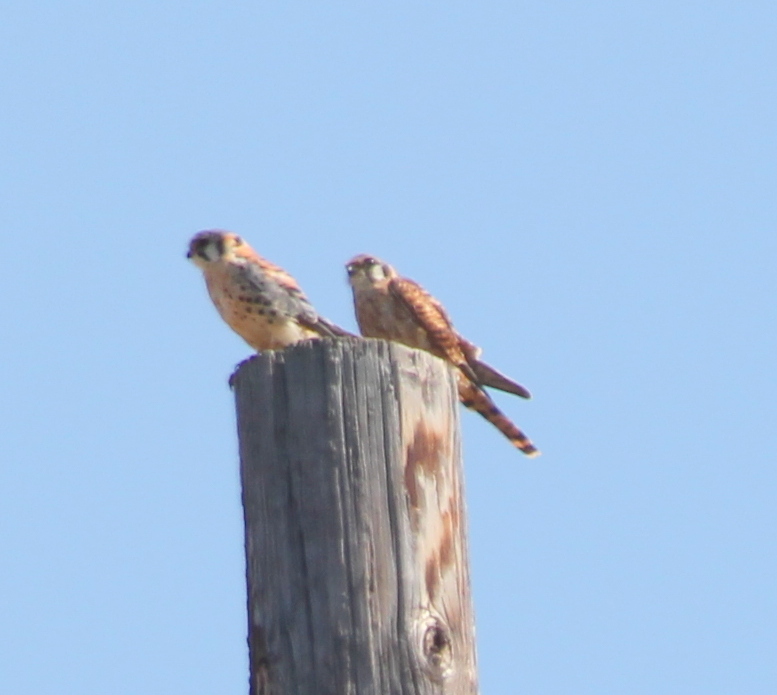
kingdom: Animalia
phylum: Chordata
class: Aves
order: Falconiformes
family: Falconidae
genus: Falco
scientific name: Falco sparverius
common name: American kestrel
